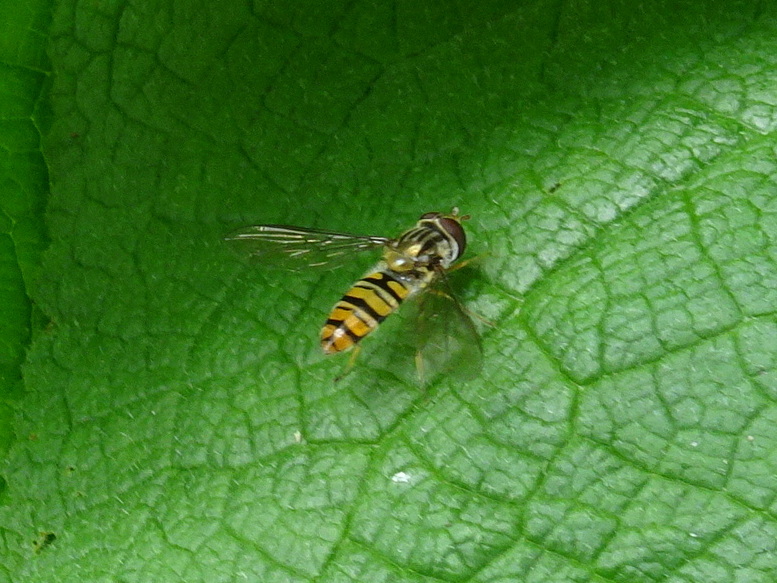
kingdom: Animalia
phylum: Arthropoda
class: Insecta
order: Diptera
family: Syrphidae
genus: Episyrphus
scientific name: Episyrphus balteatus
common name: Marmalade hoverfly
